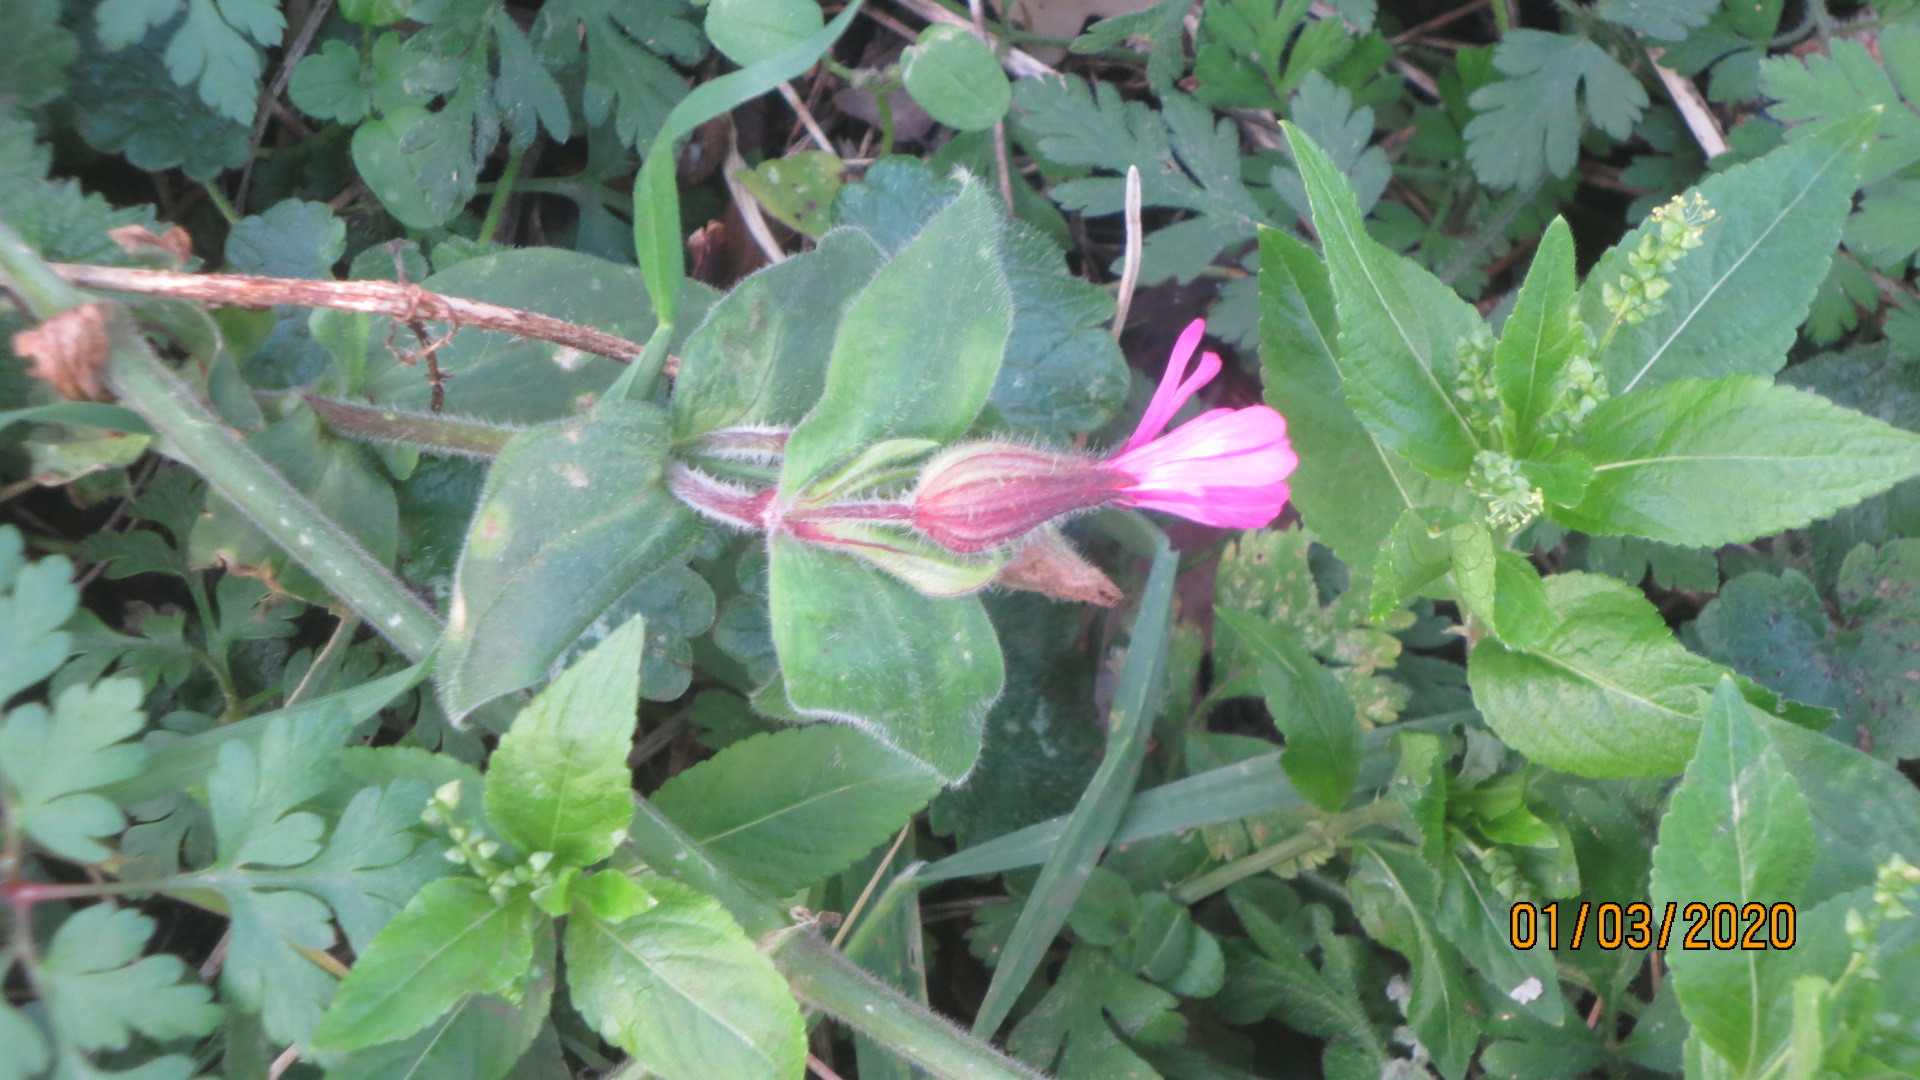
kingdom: Plantae
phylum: Tracheophyta
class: Magnoliopsida
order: Caryophyllales
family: Caryophyllaceae
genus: Silene
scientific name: Silene dioica
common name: Red campion
